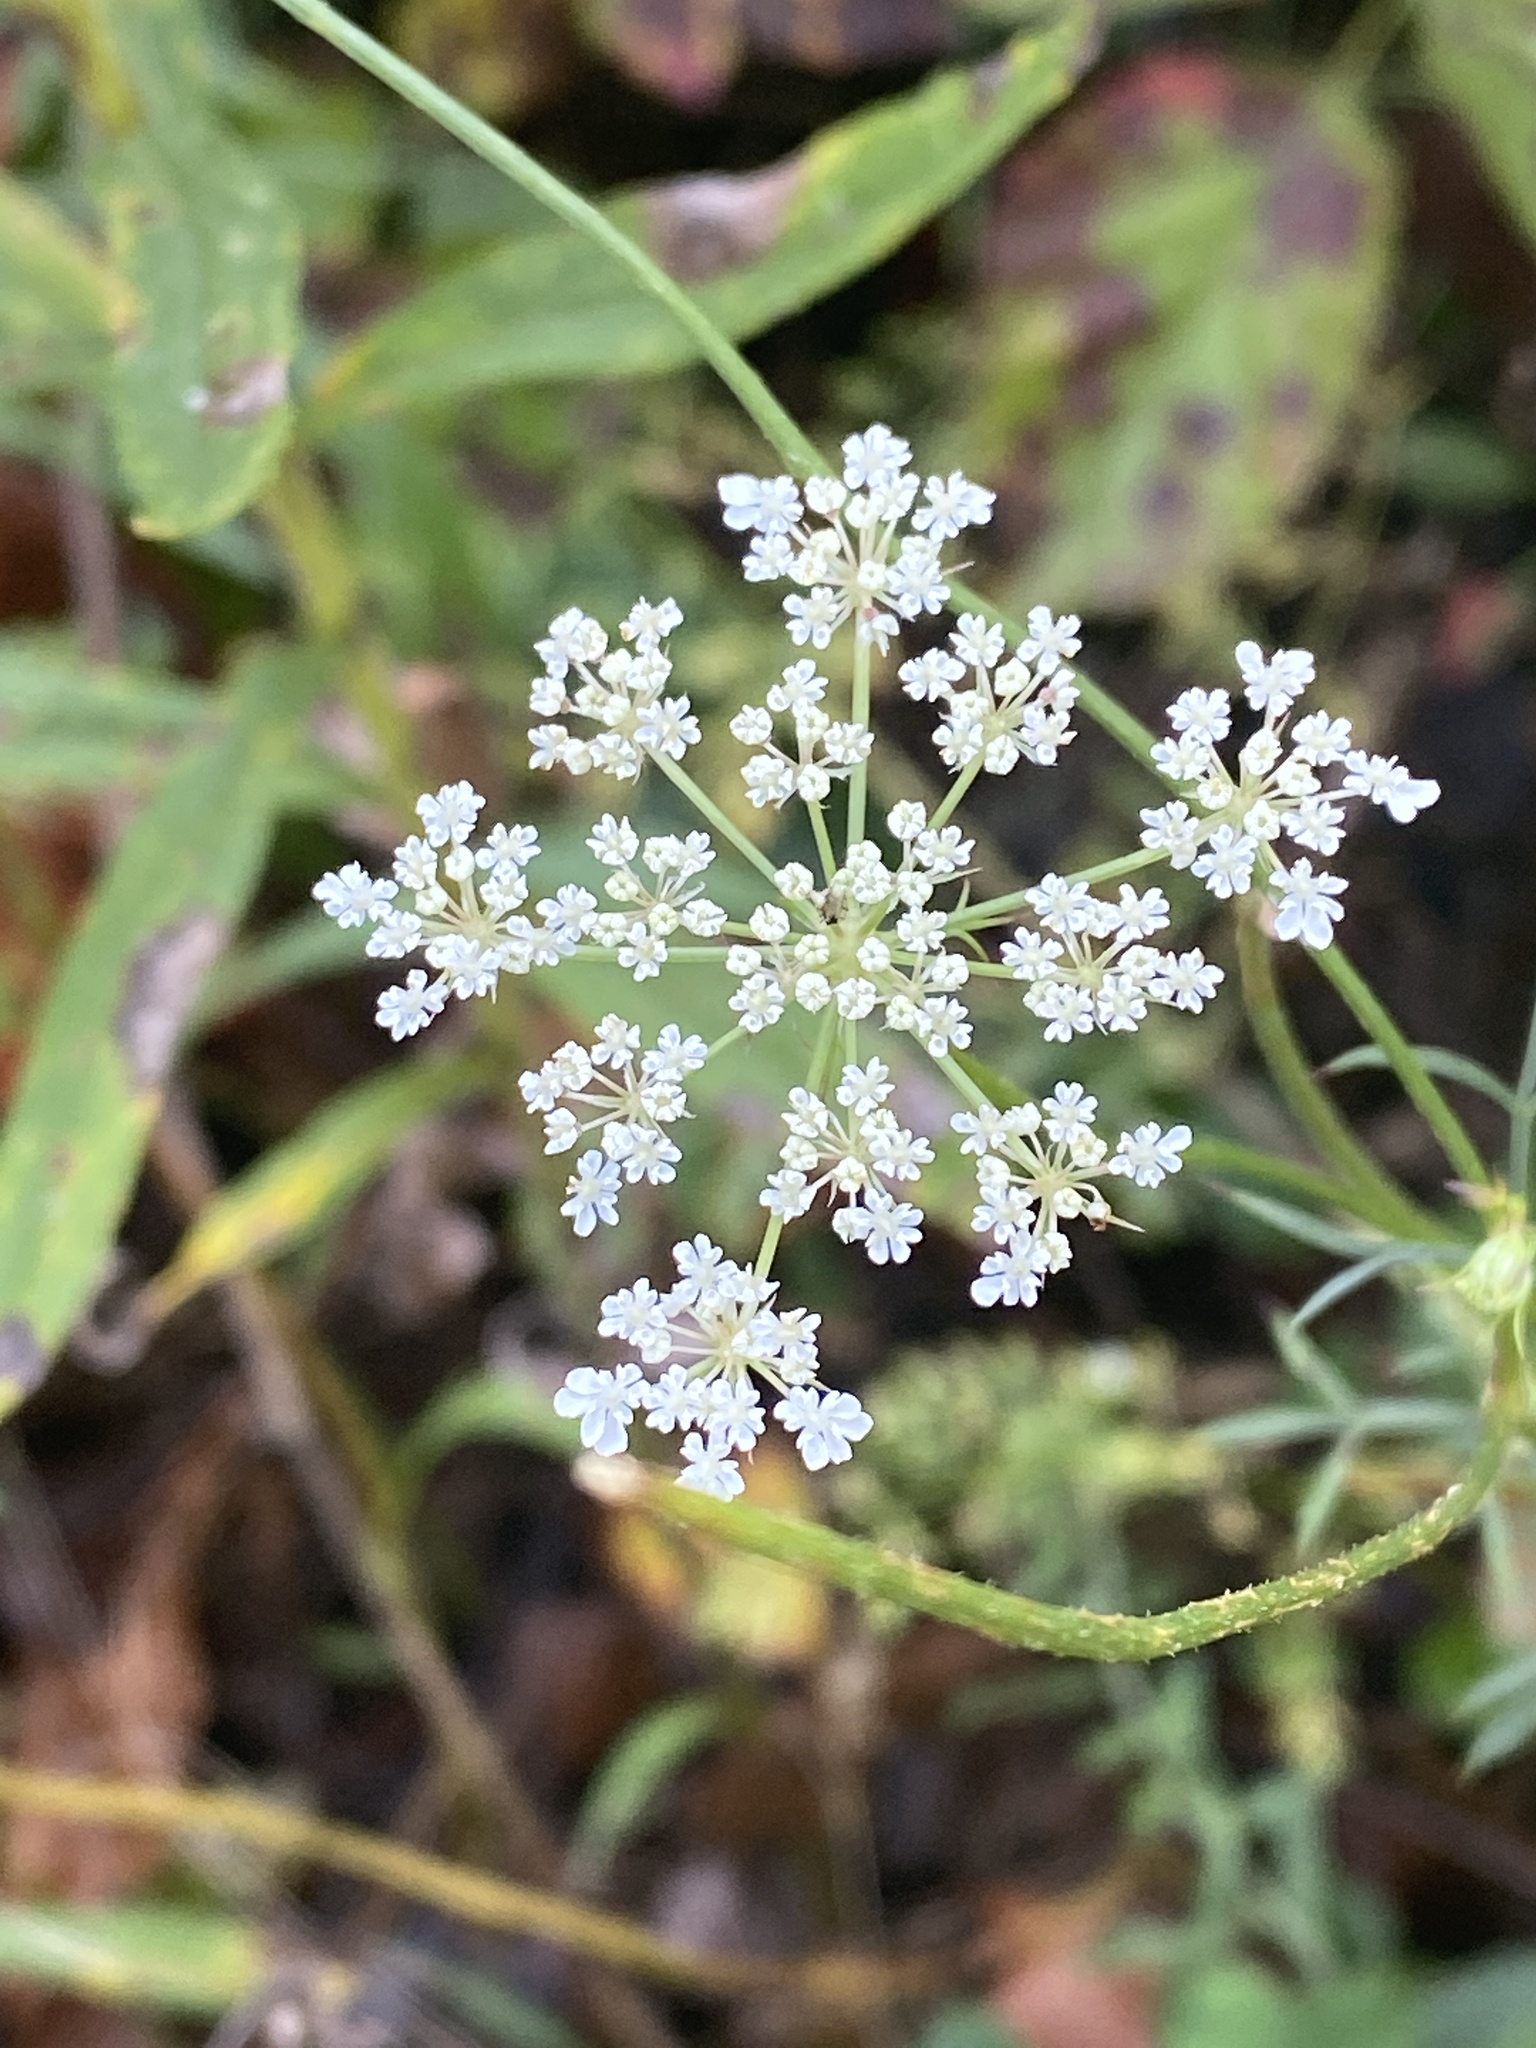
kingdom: Plantae
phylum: Tracheophyta
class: Magnoliopsida
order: Apiales
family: Apiaceae
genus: Daucus
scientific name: Daucus carota
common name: Wild carrot
